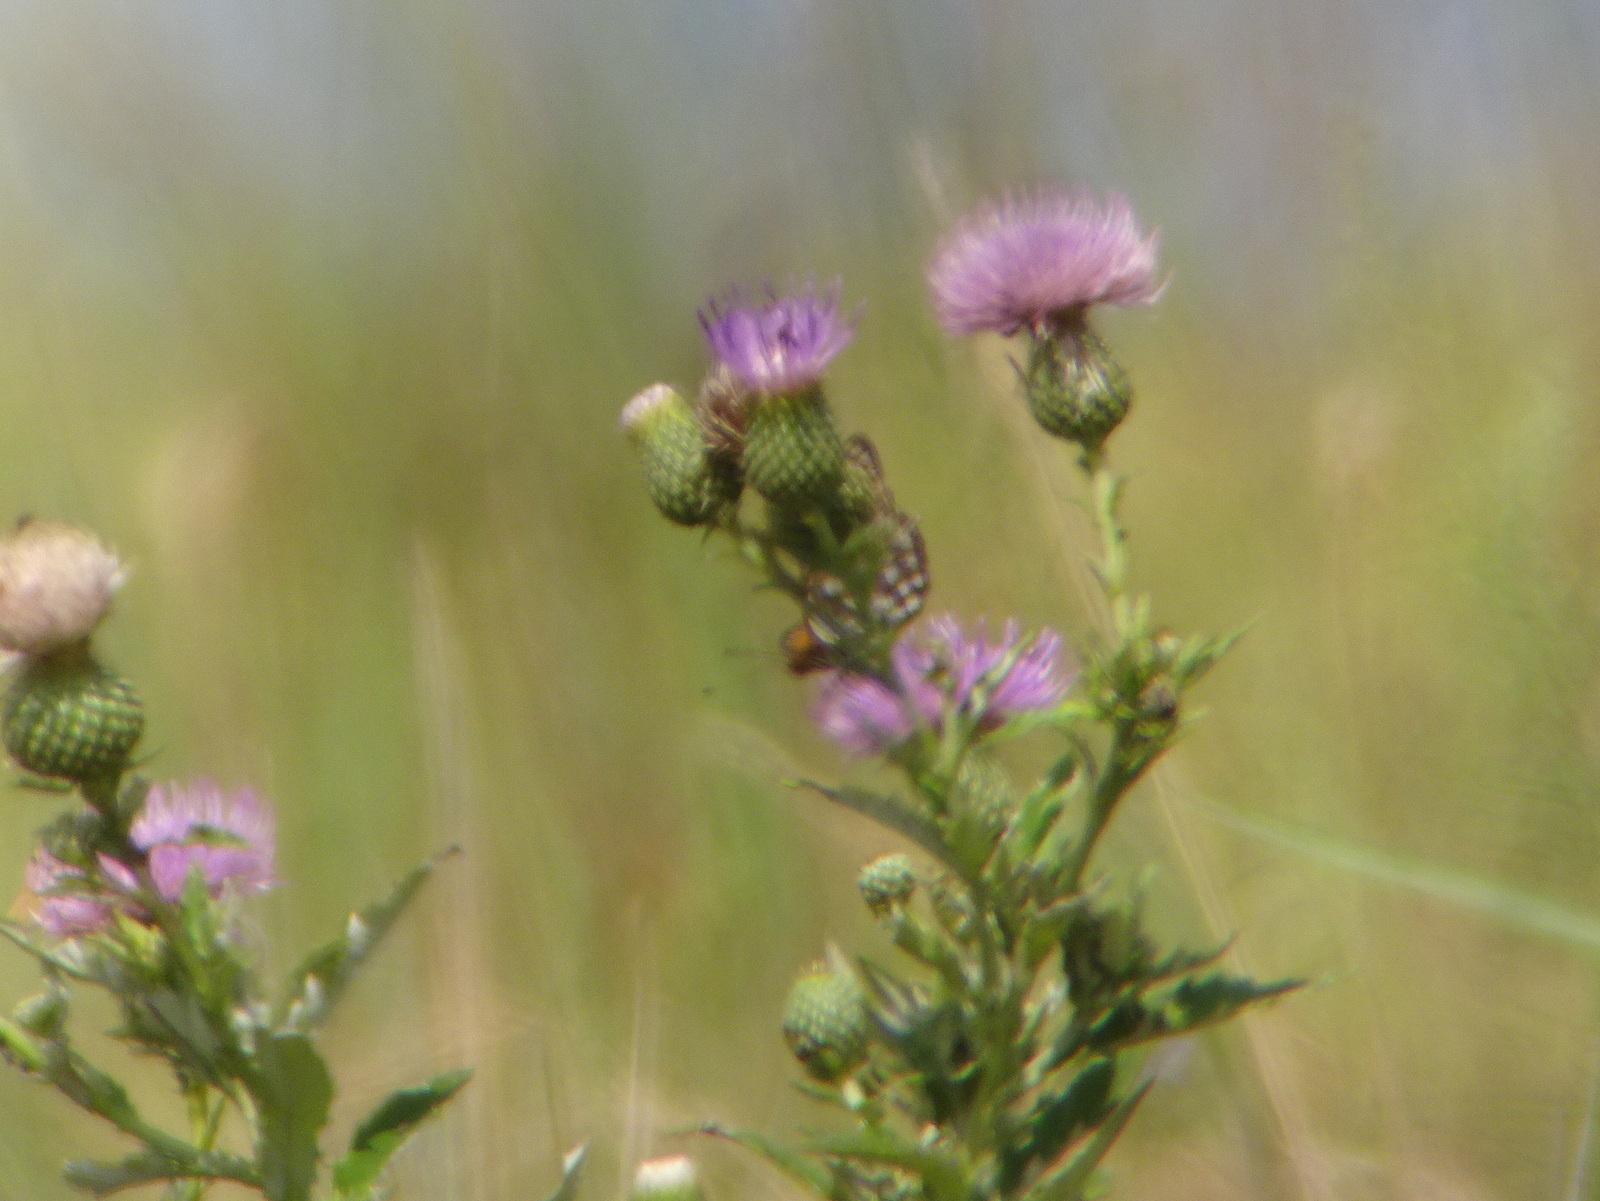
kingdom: Animalia
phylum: Arthropoda
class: Insecta
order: Lepidoptera
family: Nymphalidae
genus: Speyeria
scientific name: Speyeria idalia
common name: Regal fritillary
